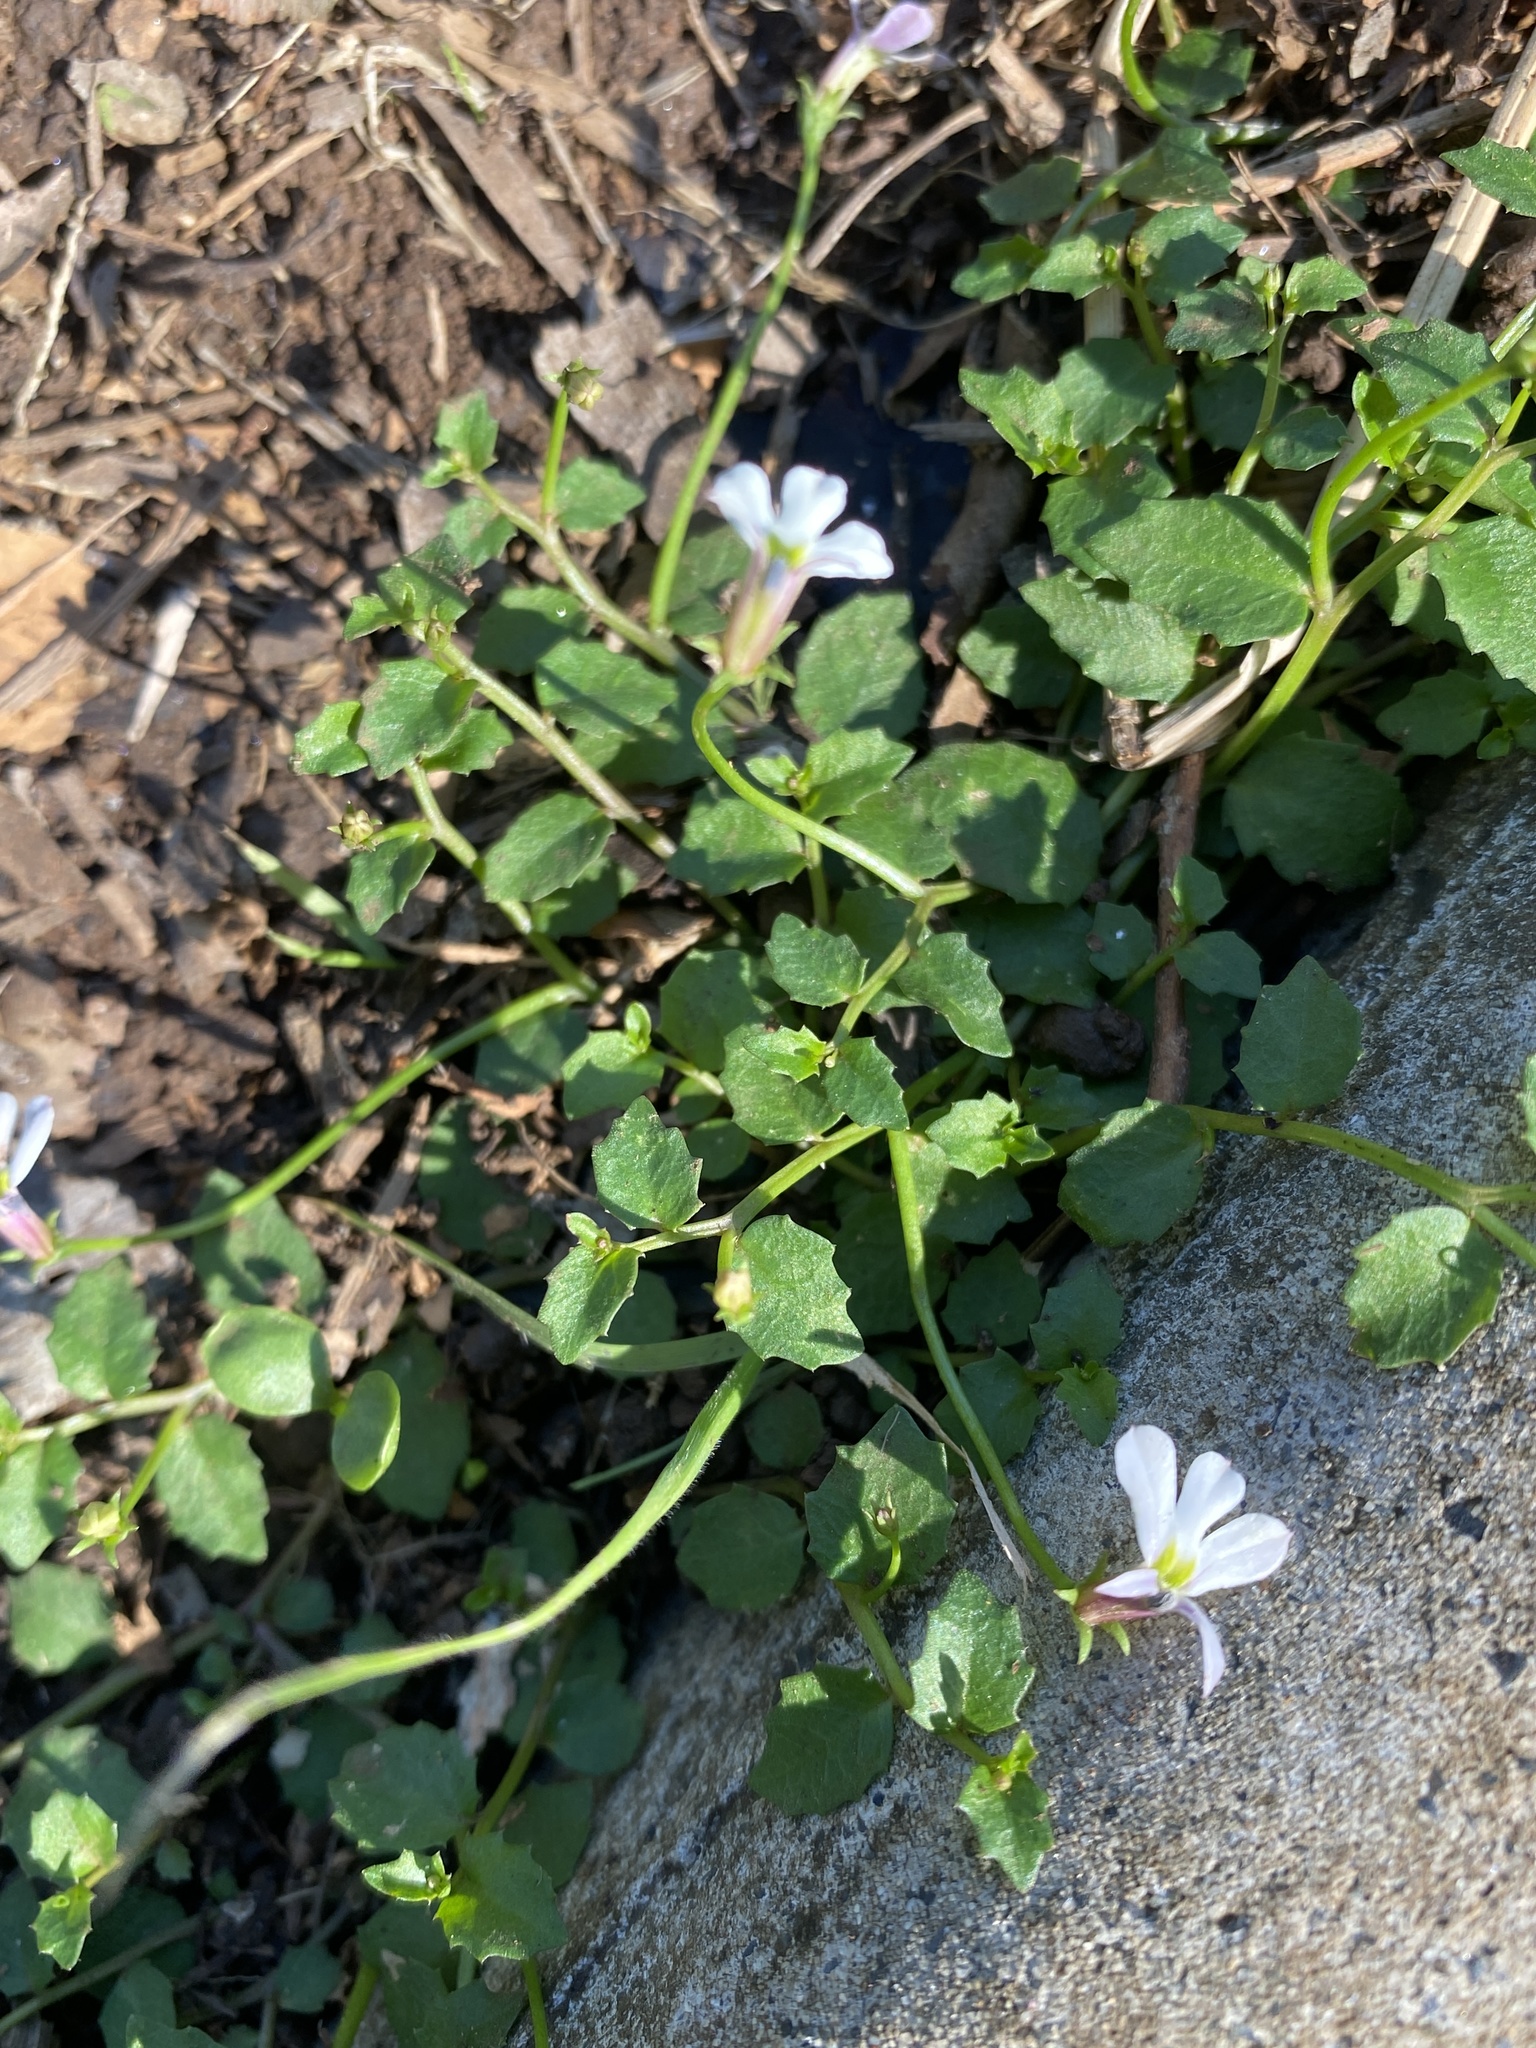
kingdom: Plantae
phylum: Tracheophyta
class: Magnoliopsida
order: Asterales
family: Campanulaceae
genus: Lobelia
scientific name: Lobelia purpurascens
